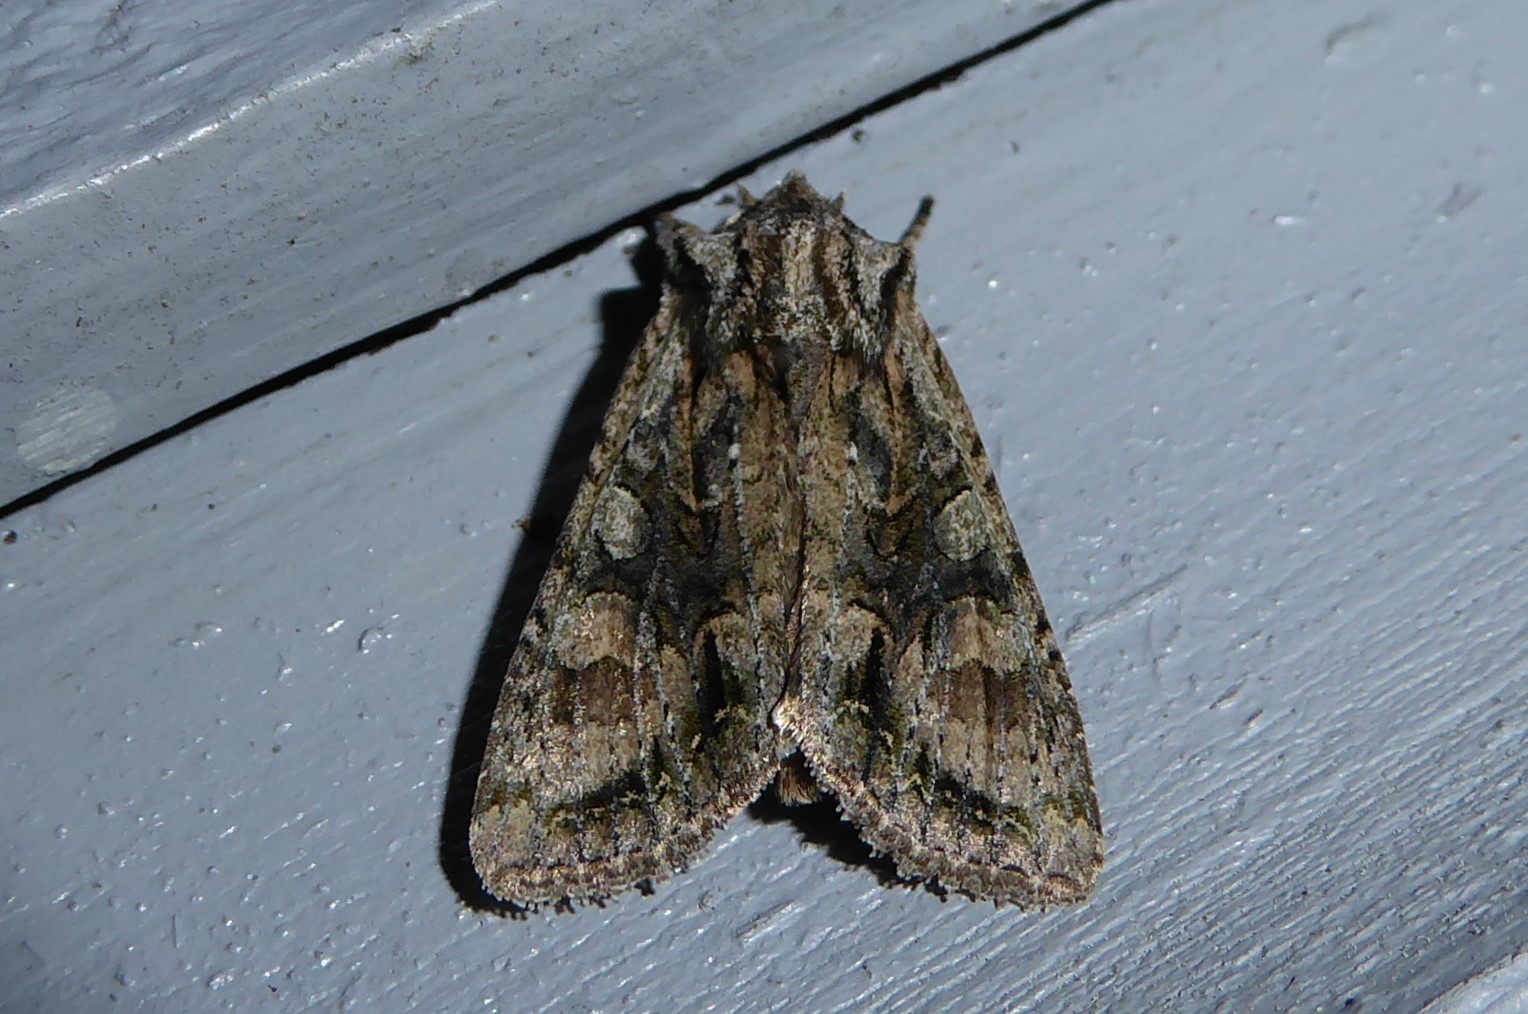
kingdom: Animalia
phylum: Arthropoda
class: Insecta
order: Lepidoptera
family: Noctuidae
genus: Ichneutica
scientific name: Ichneutica mutans
